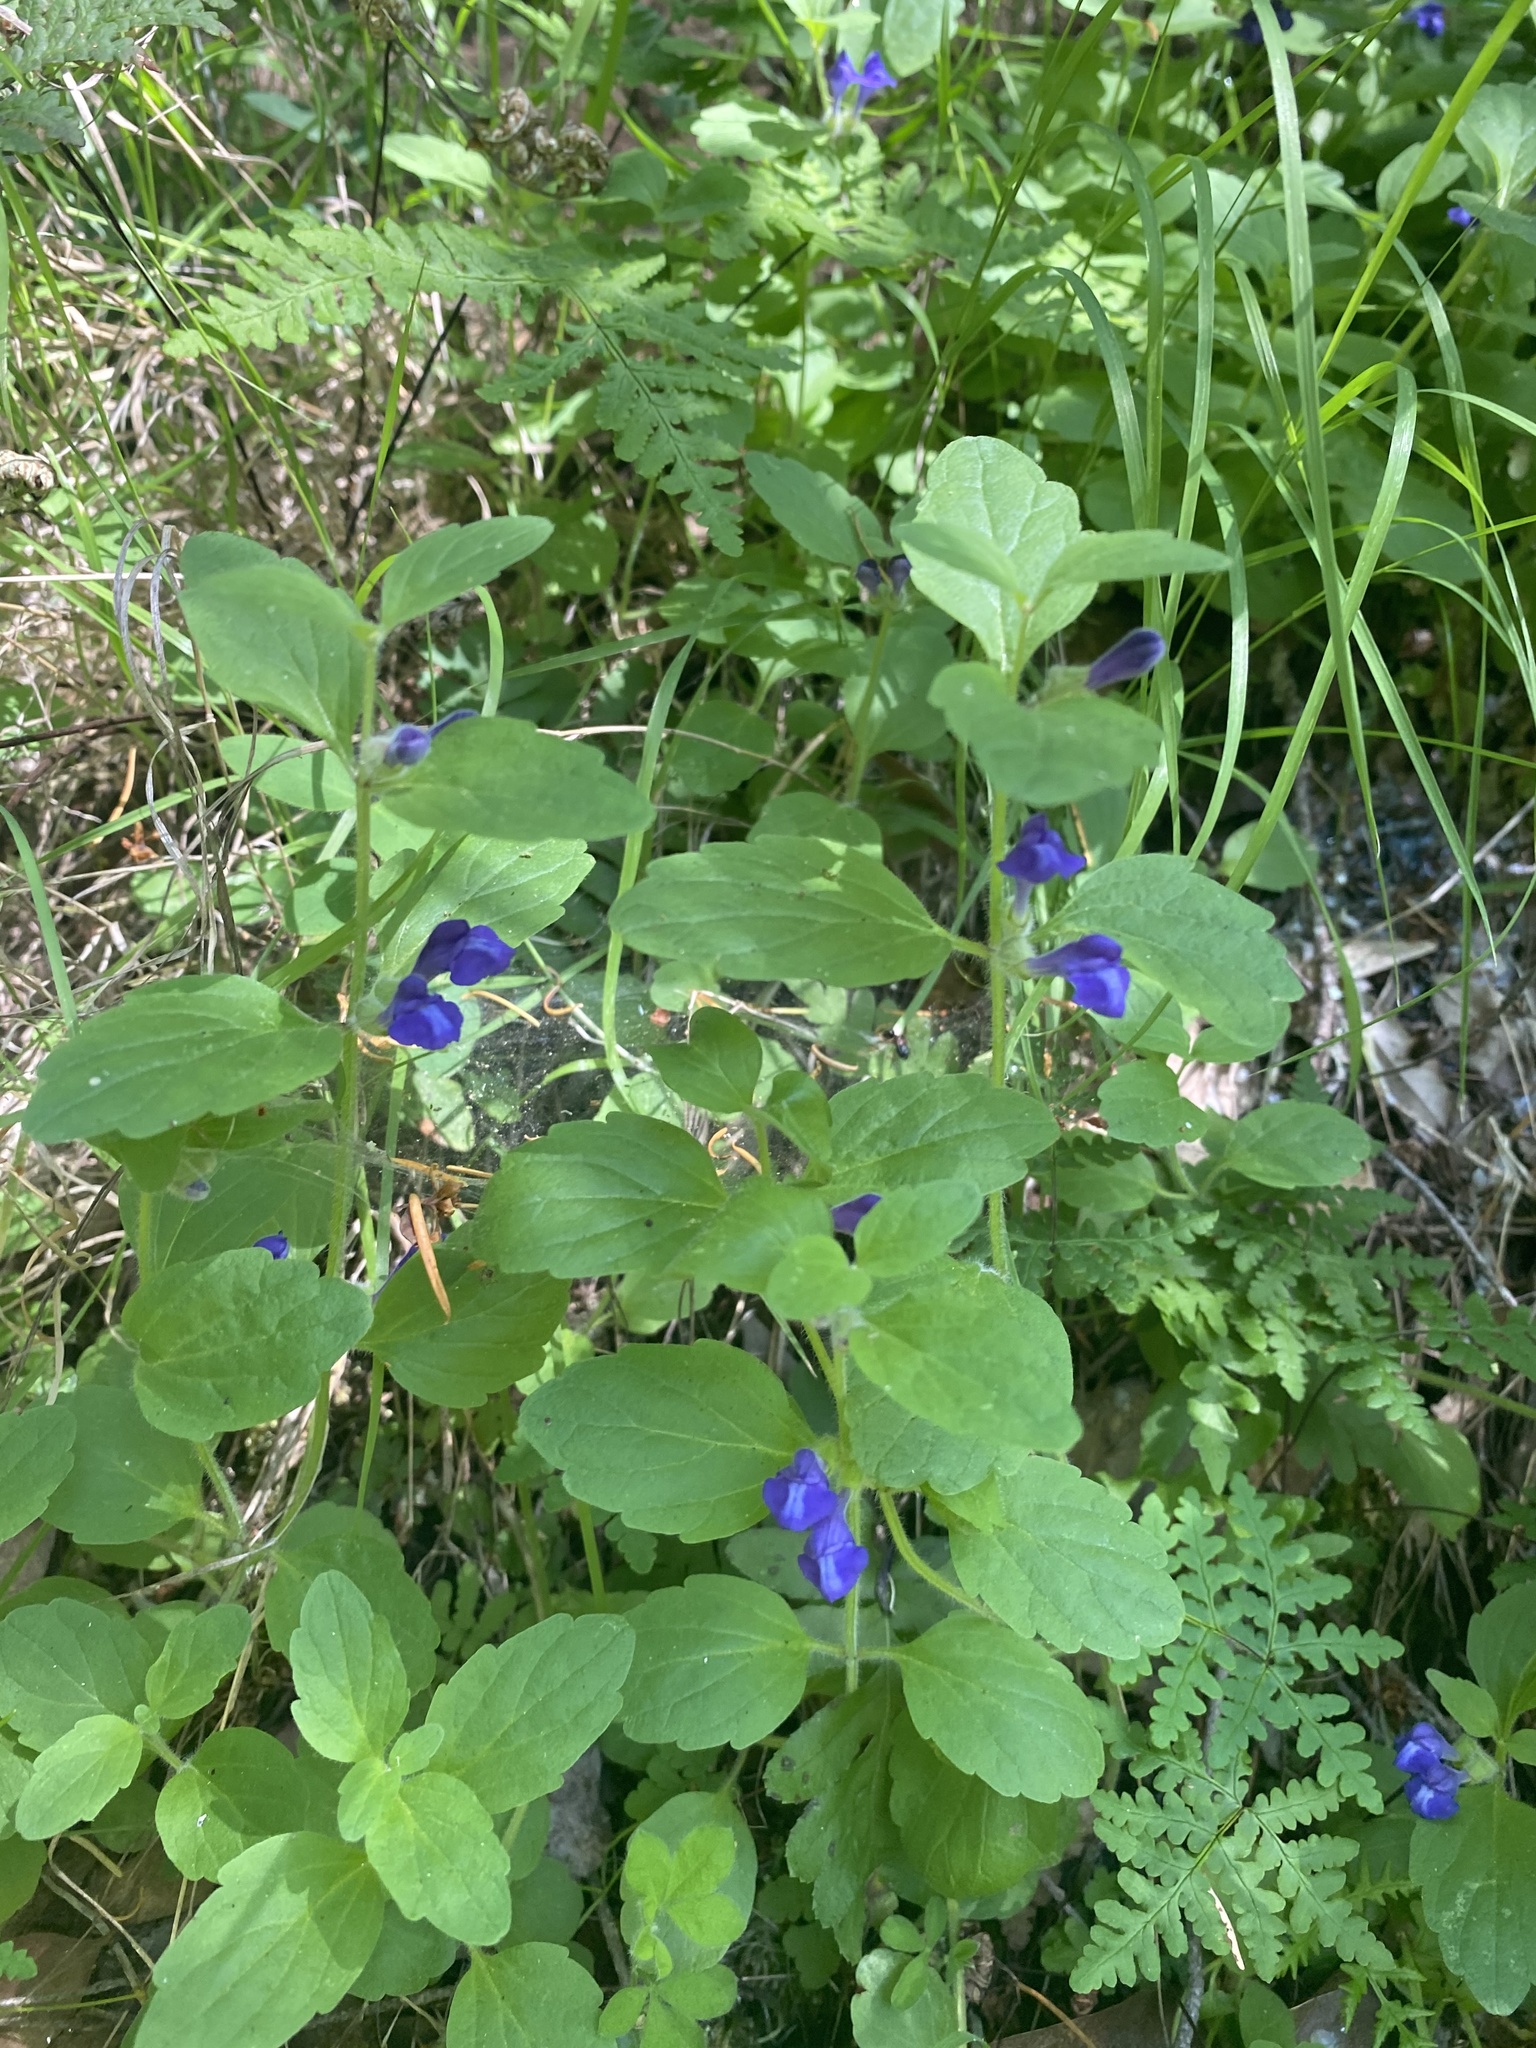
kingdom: Plantae
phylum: Tracheophyta
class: Magnoliopsida
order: Lamiales
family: Lamiaceae
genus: Scutellaria
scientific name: Scutellaria tuberosa
